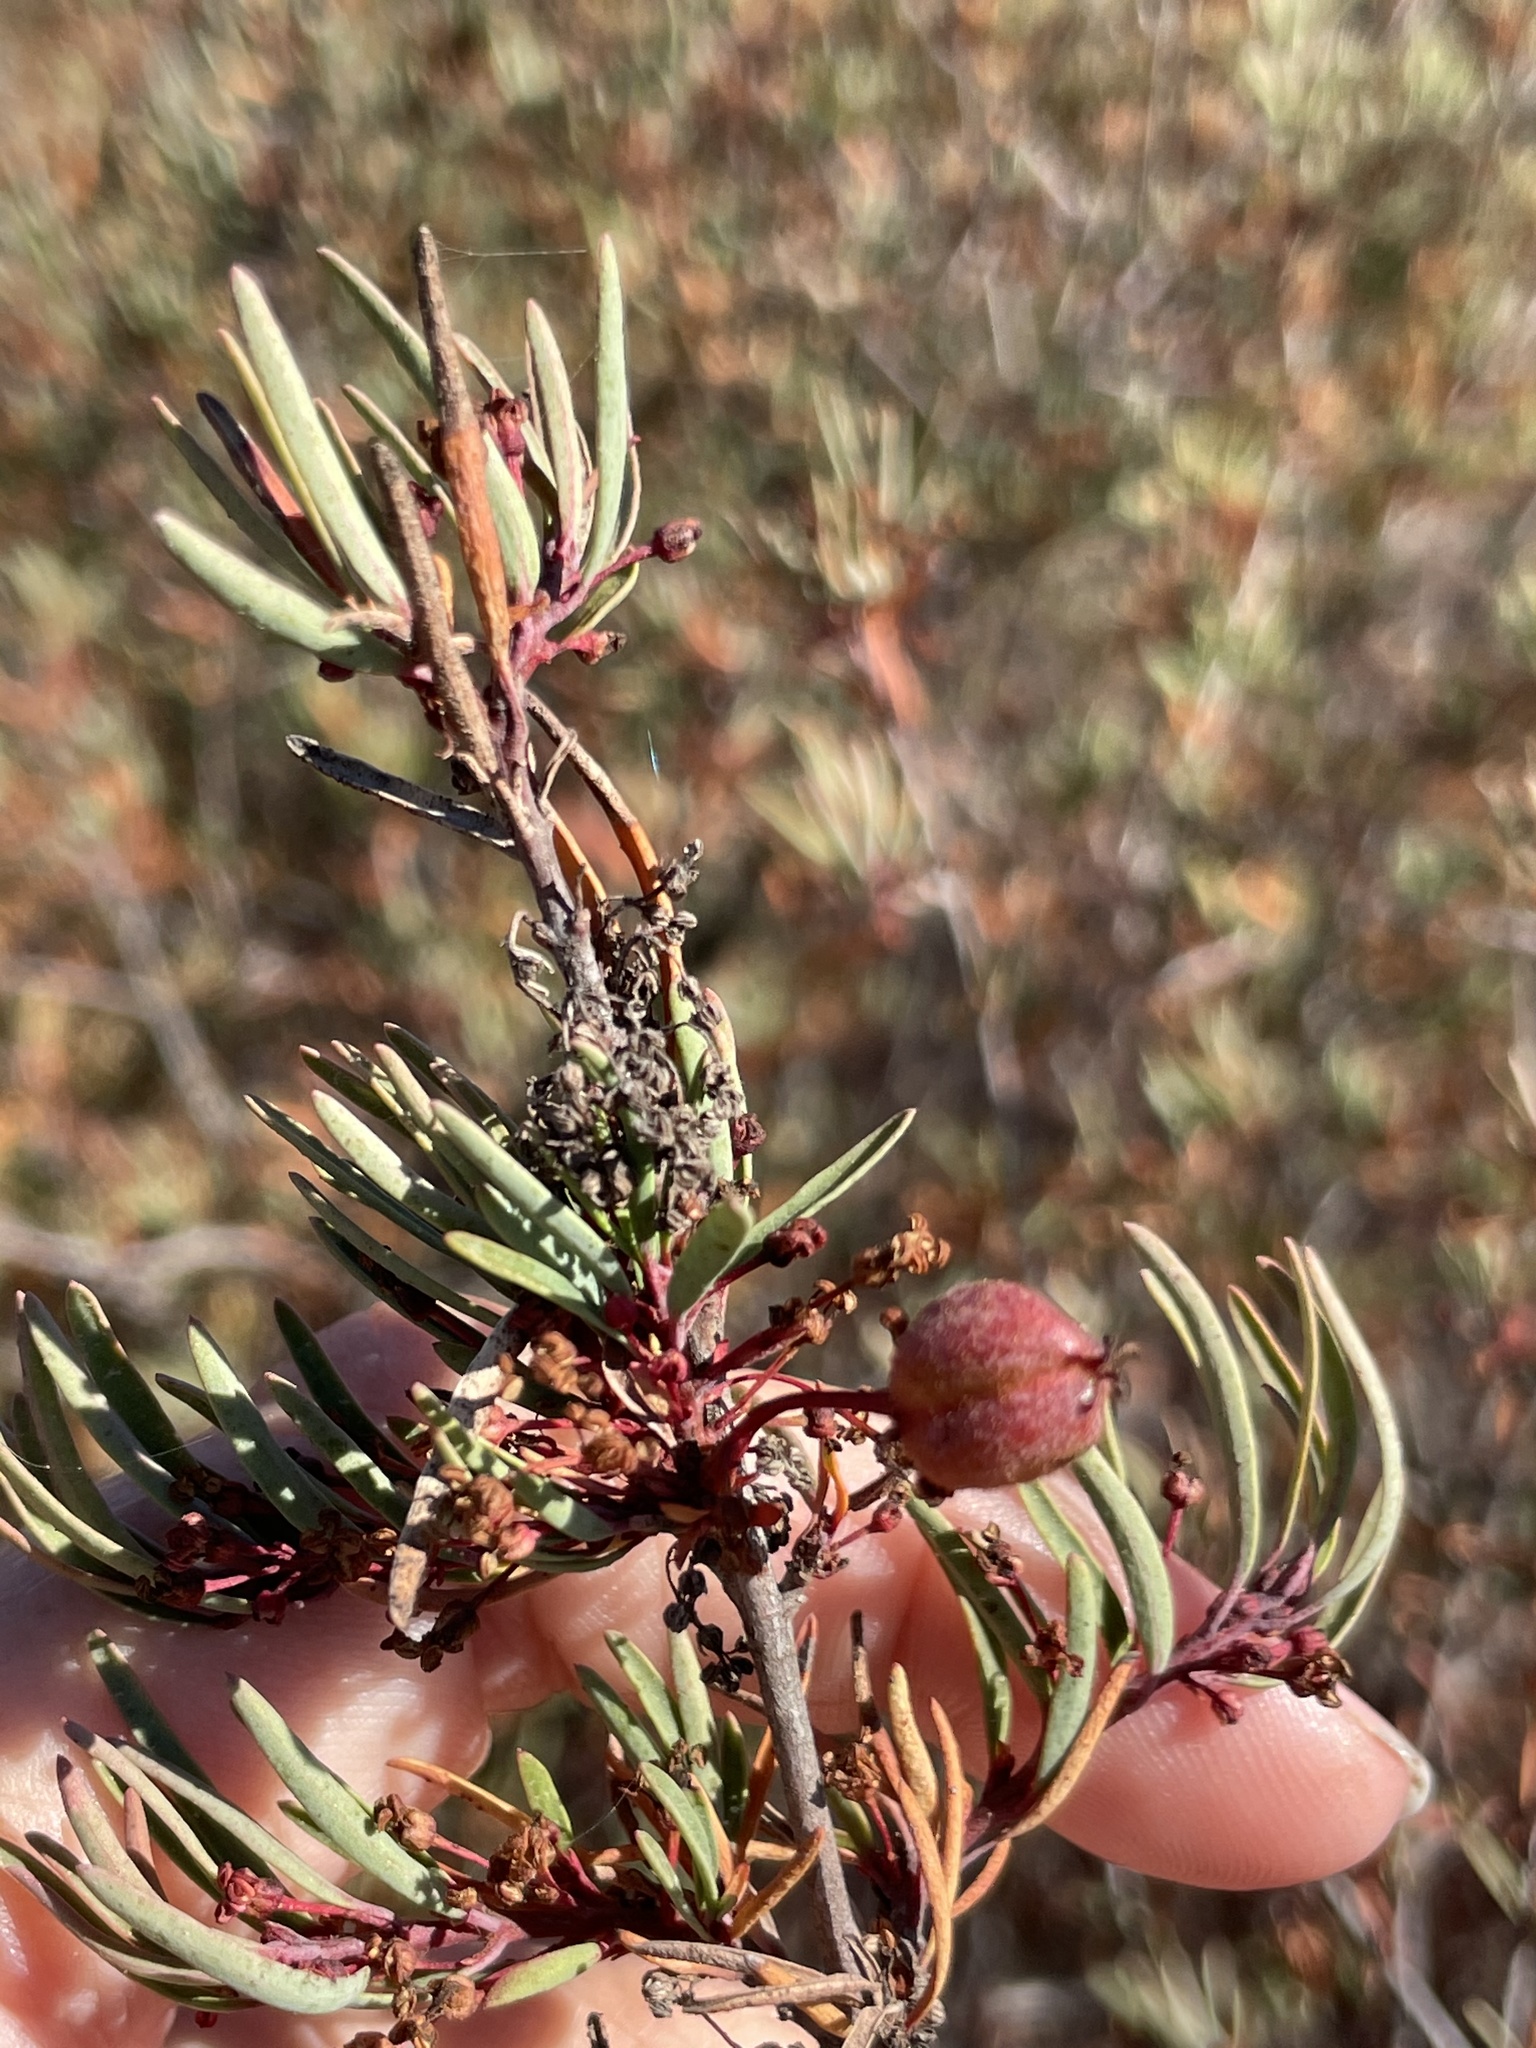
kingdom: Plantae
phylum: Tracheophyta
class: Magnoliopsida
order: Malpighiales
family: Picrodendraceae
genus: Tetracoccus
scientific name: Tetracoccus dioicus
